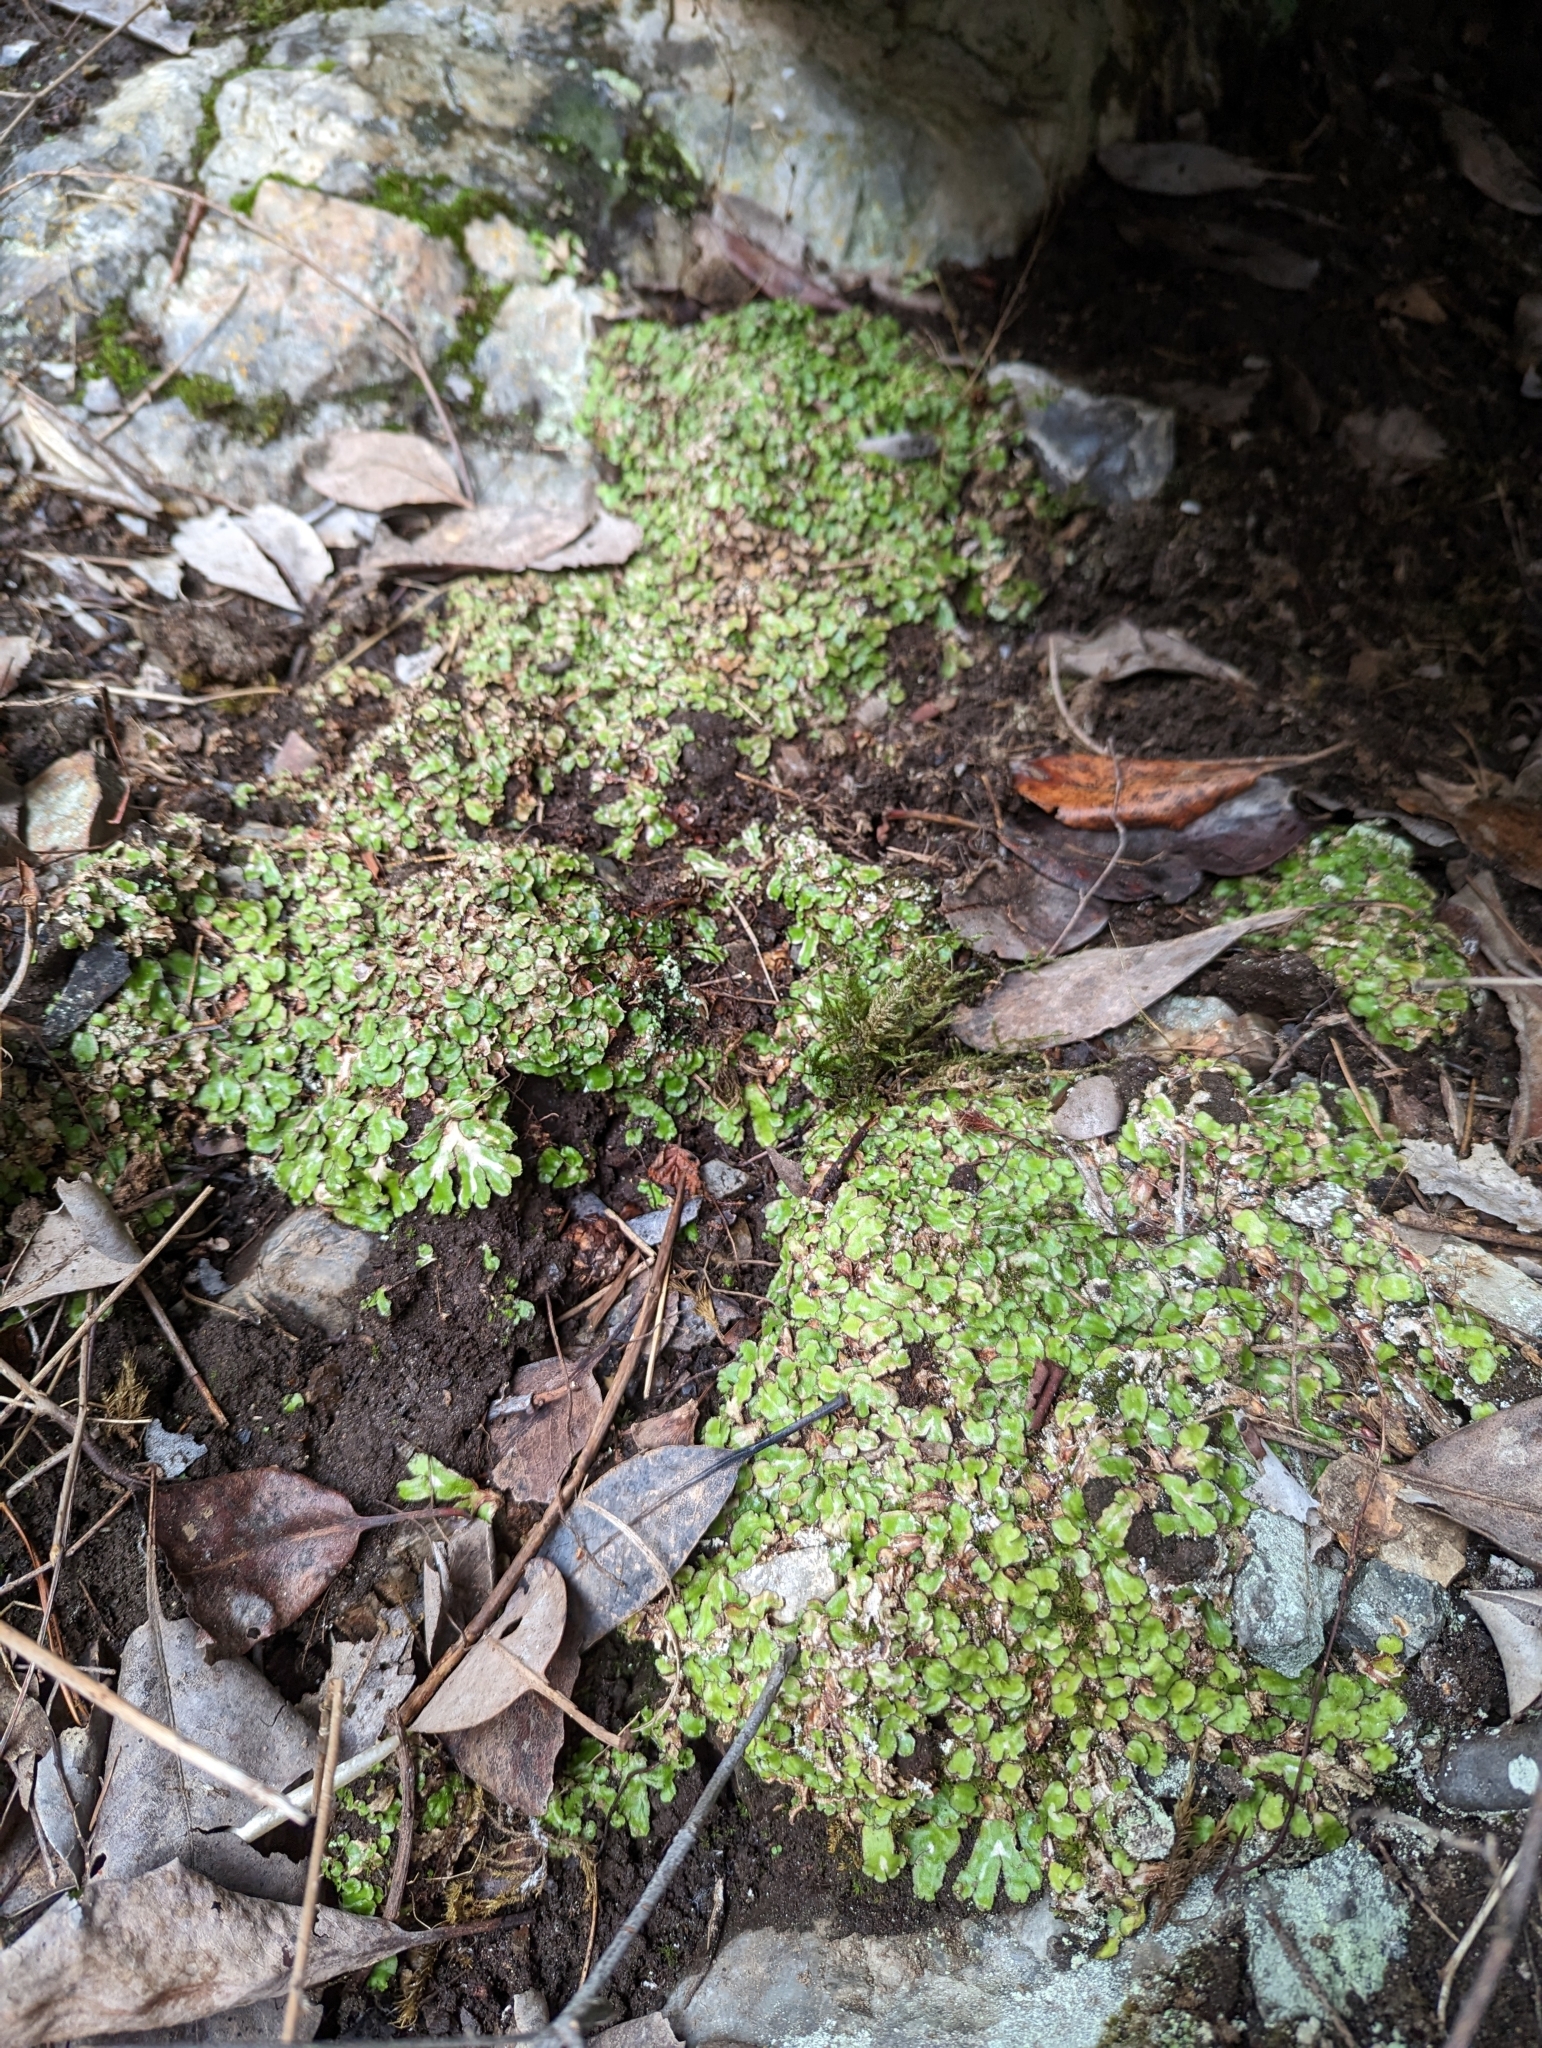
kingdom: Plantae
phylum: Marchantiophyta
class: Marchantiopsida
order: Marchantiales
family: Aytoniaceae
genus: Reboulia
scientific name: Reboulia hemisphaerica
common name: Purple-margined liverwort
